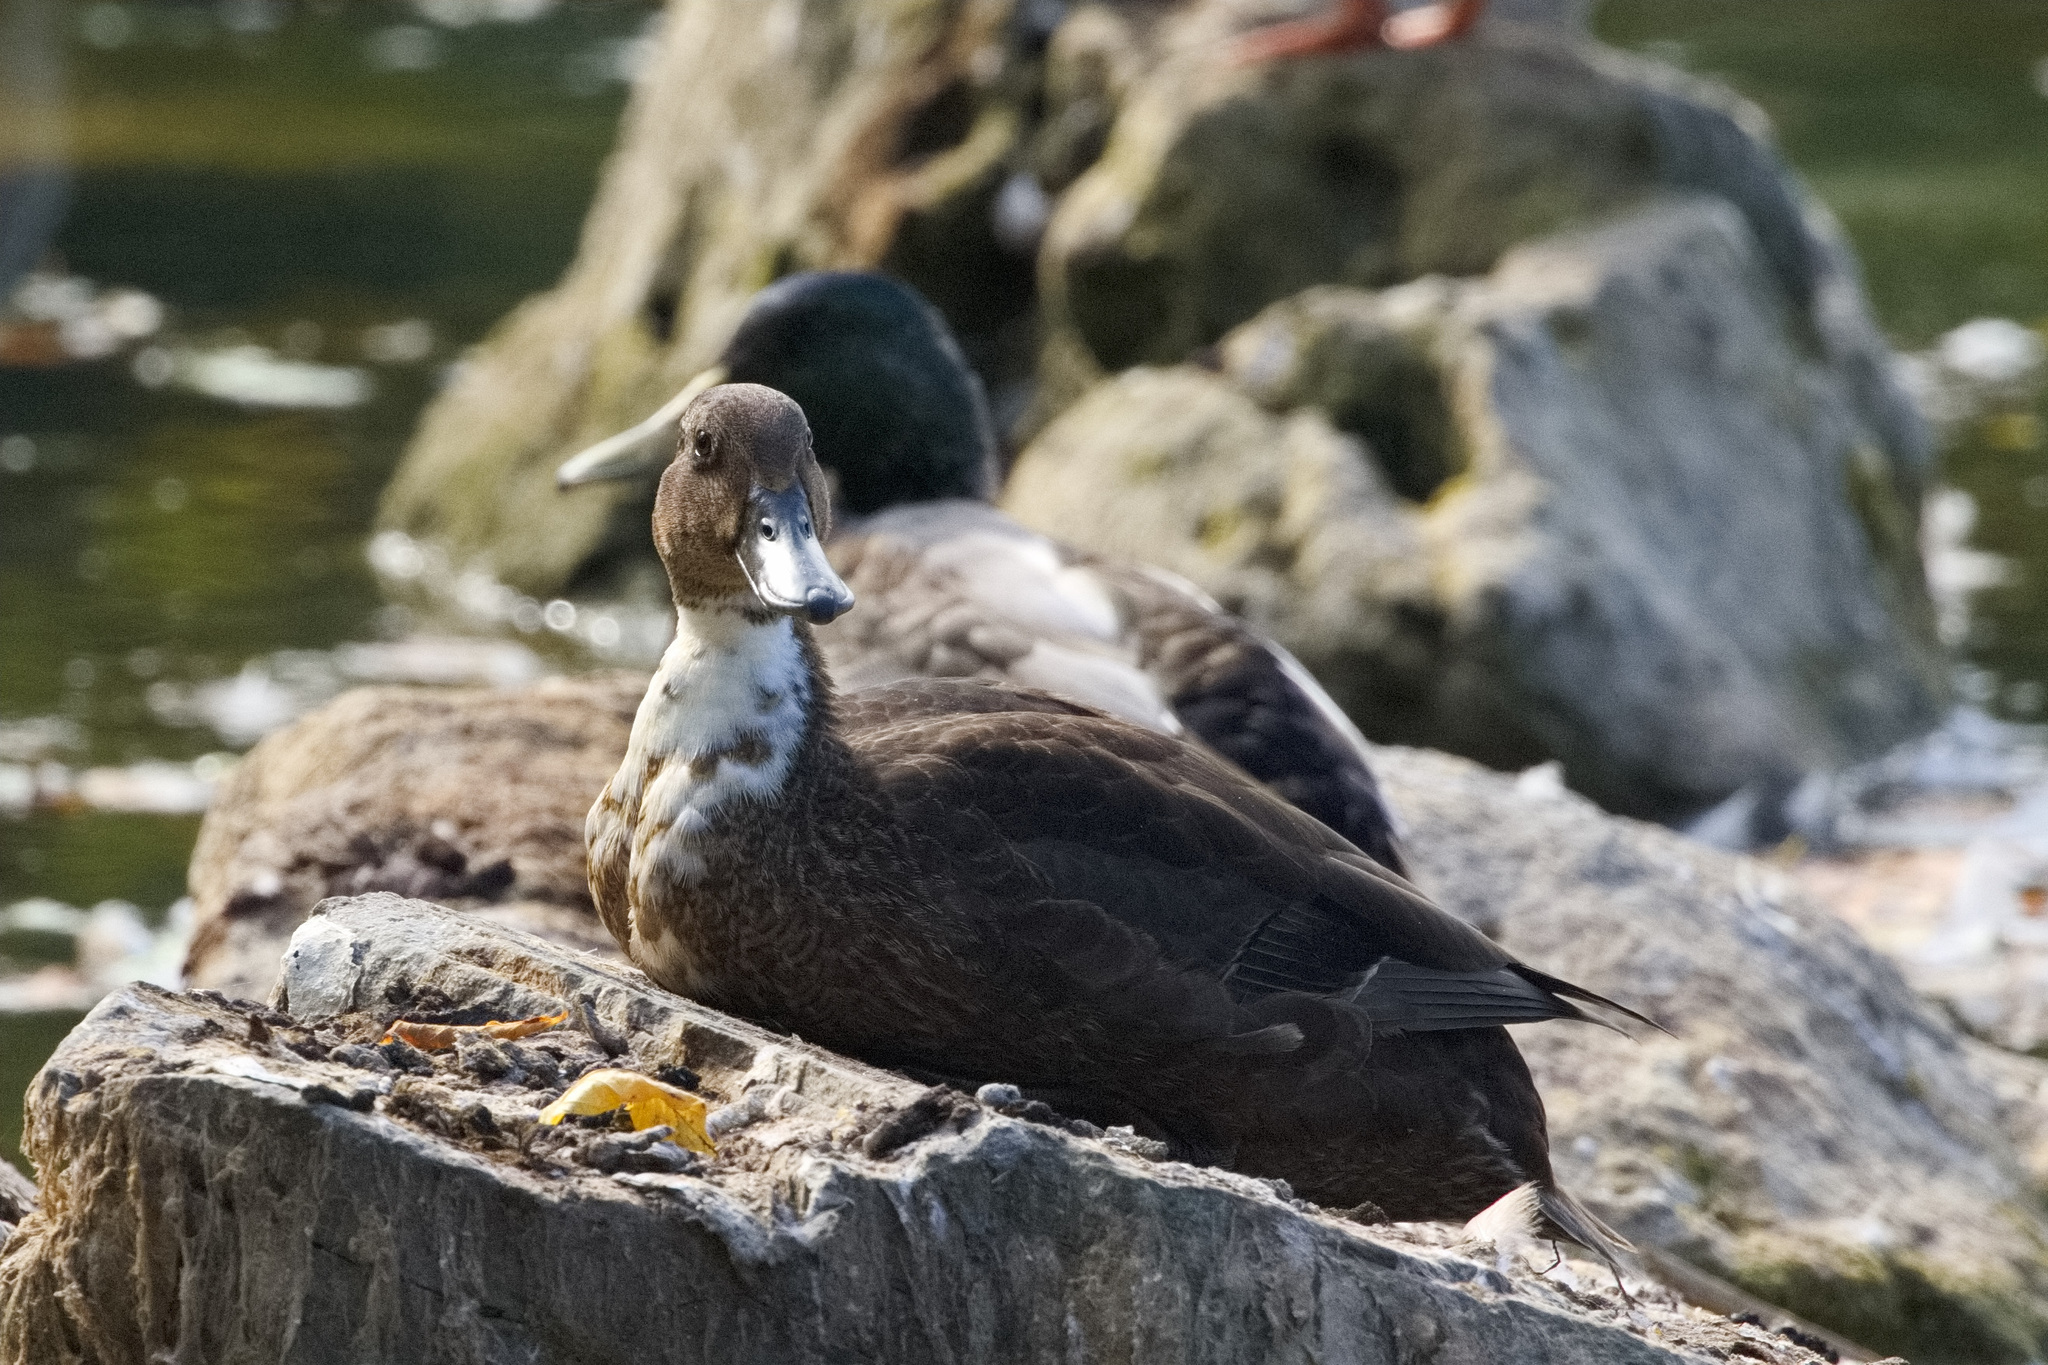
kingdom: Animalia
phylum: Chordata
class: Aves
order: Anseriformes
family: Anatidae
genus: Anas
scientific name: Anas platyrhynchos
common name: Mallard
